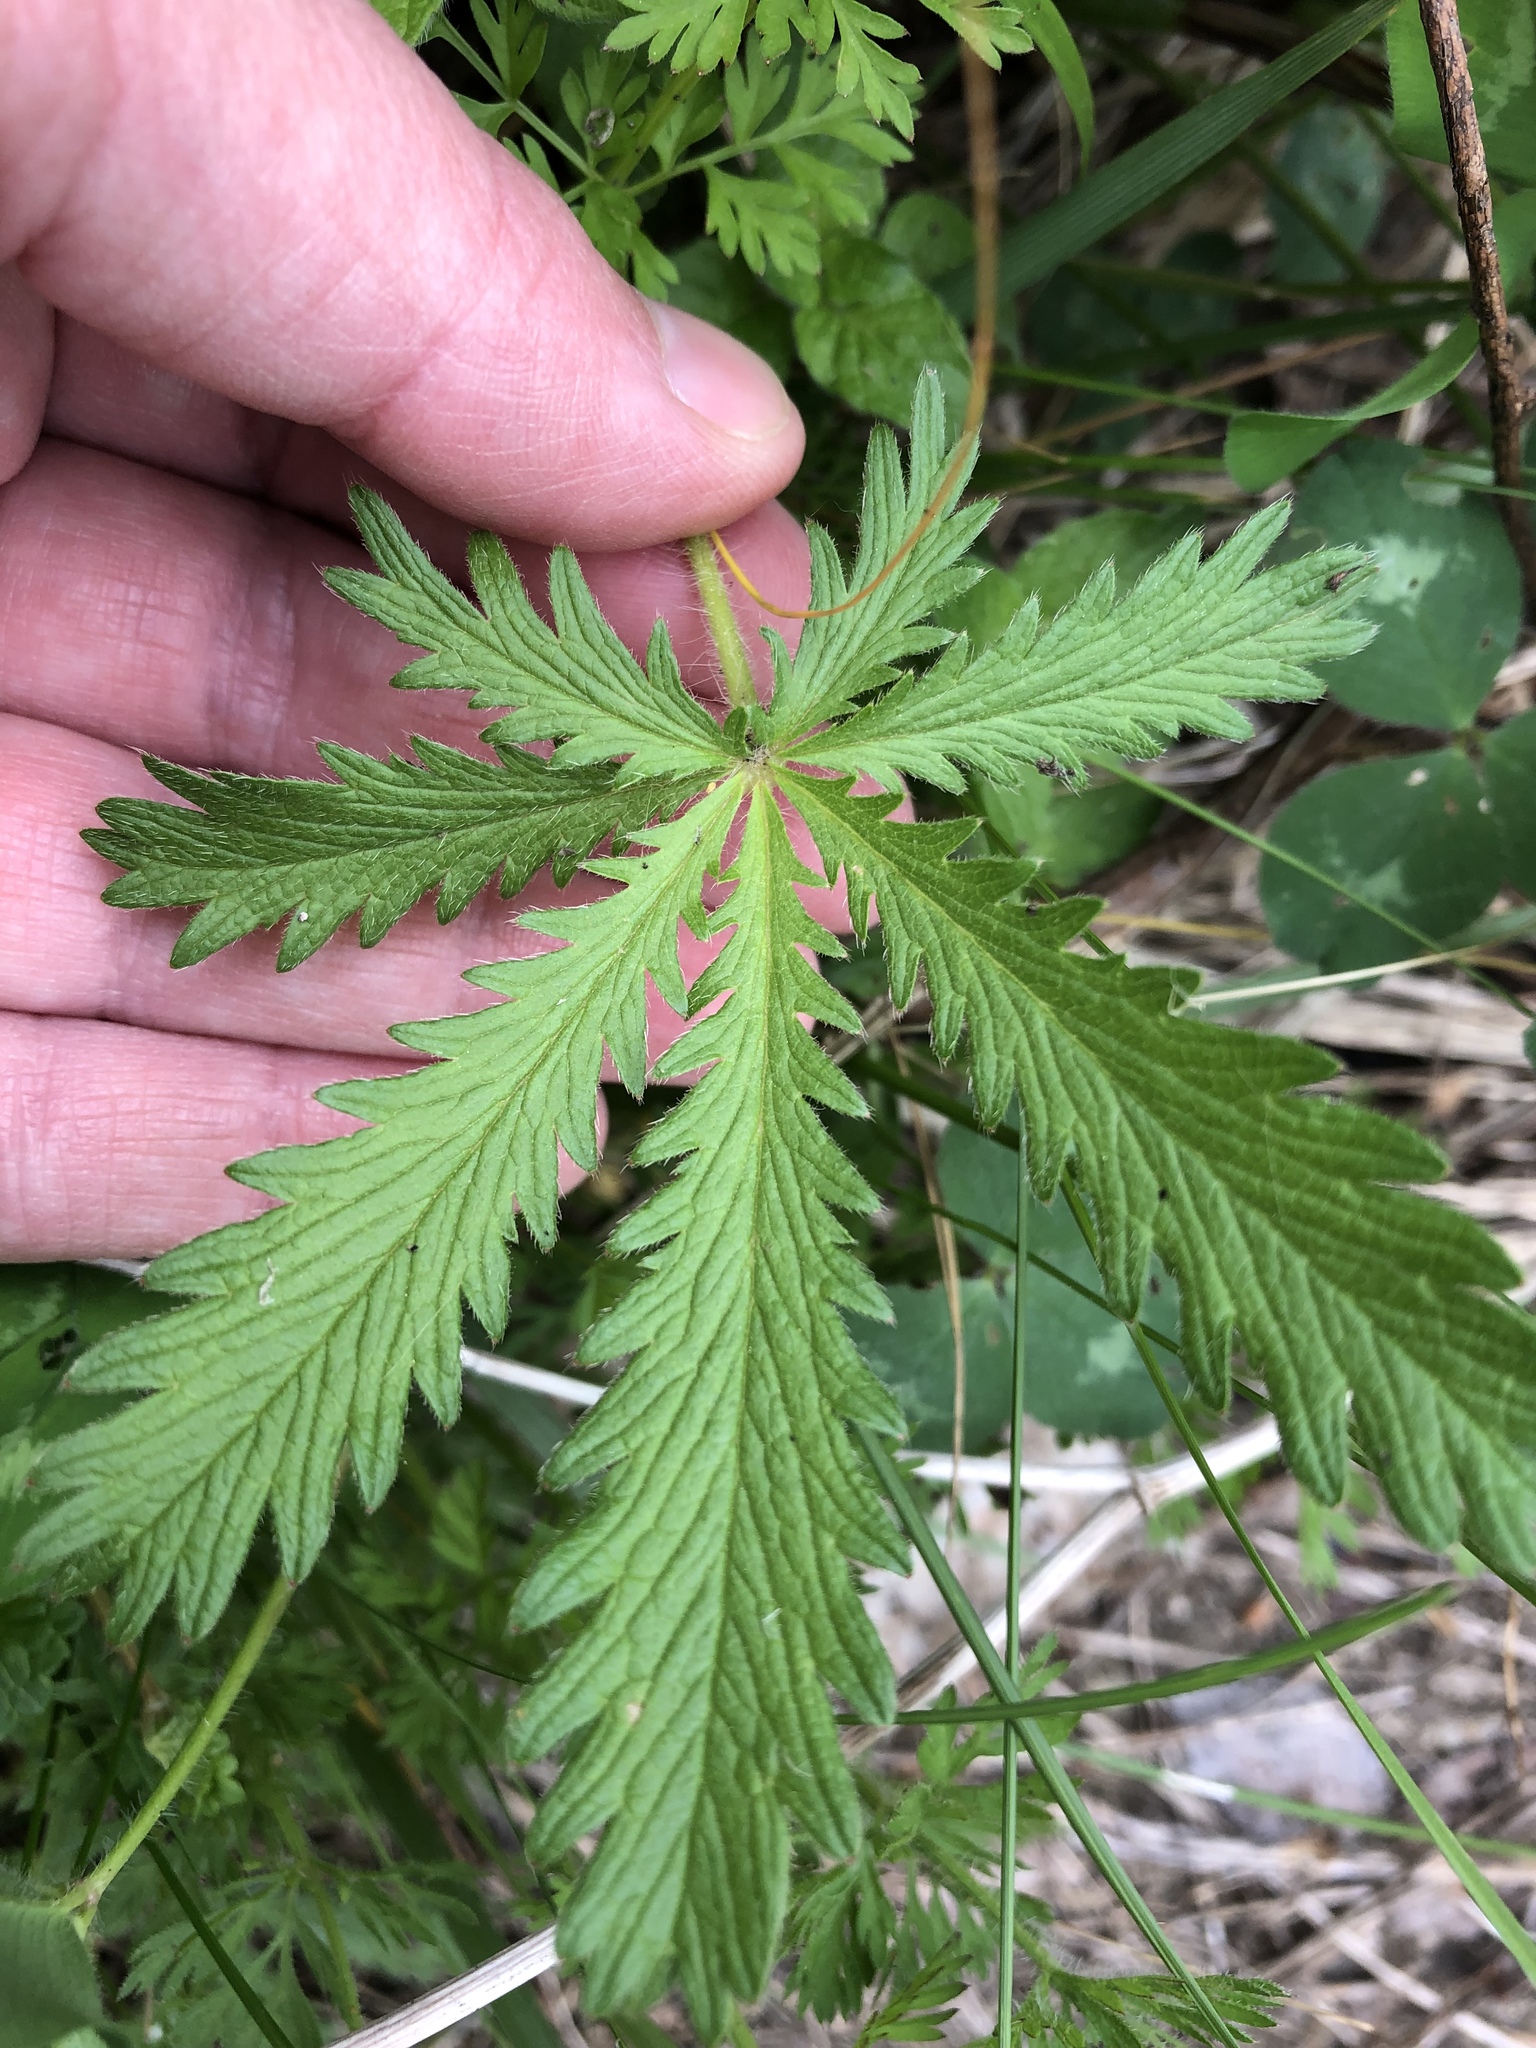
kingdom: Plantae
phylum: Tracheophyta
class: Magnoliopsida
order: Rosales
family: Rosaceae
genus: Potentilla
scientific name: Potentilla recta
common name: Sulphur cinquefoil
